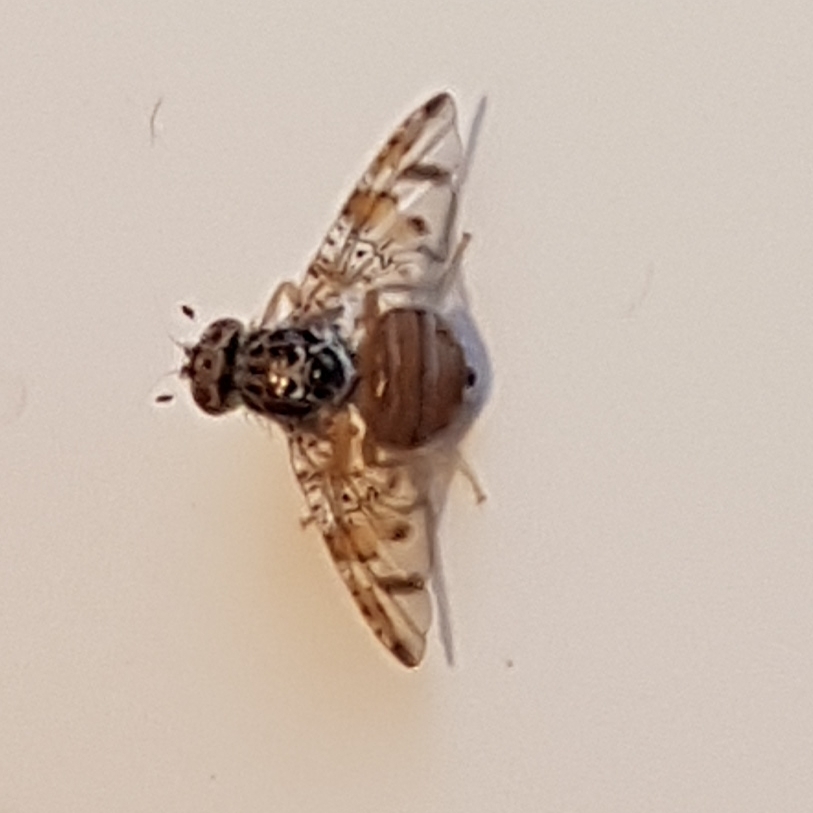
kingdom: Animalia
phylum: Arthropoda
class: Insecta
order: Diptera
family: Tephritidae
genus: Ceratitis
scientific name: Ceratitis capitata
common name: Mediterranean fruit fly
